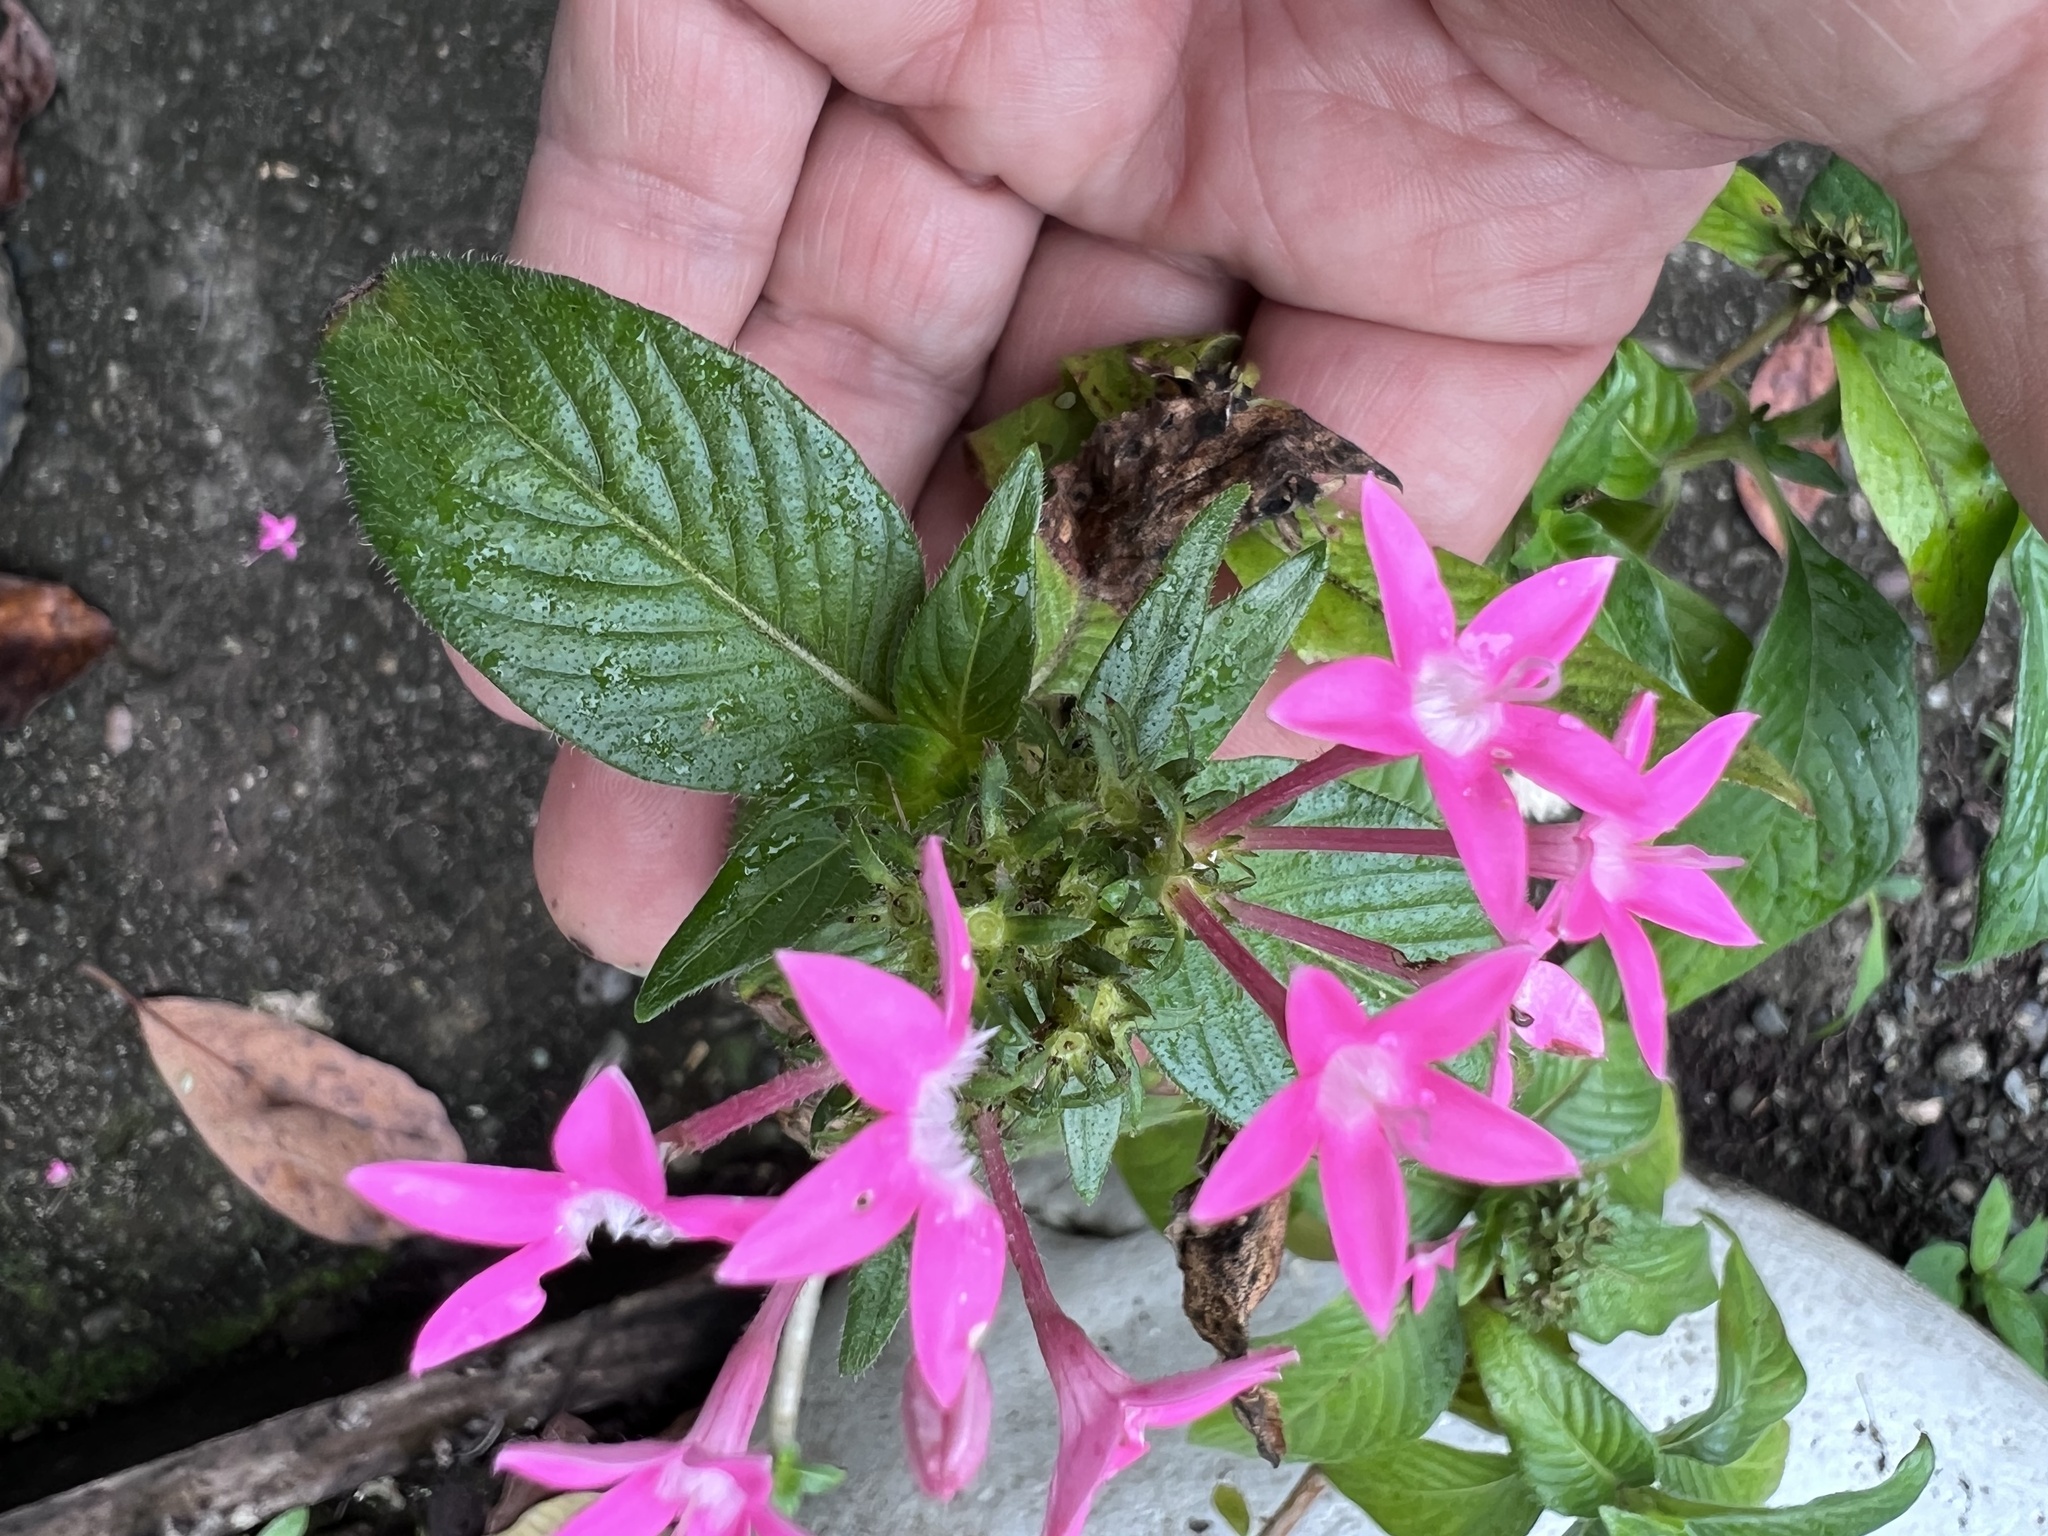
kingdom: Plantae
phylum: Tracheophyta
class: Magnoliopsida
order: Gentianales
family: Rubiaceae
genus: Pentas
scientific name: Pentas lanceolata
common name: Egyptian starcluster
